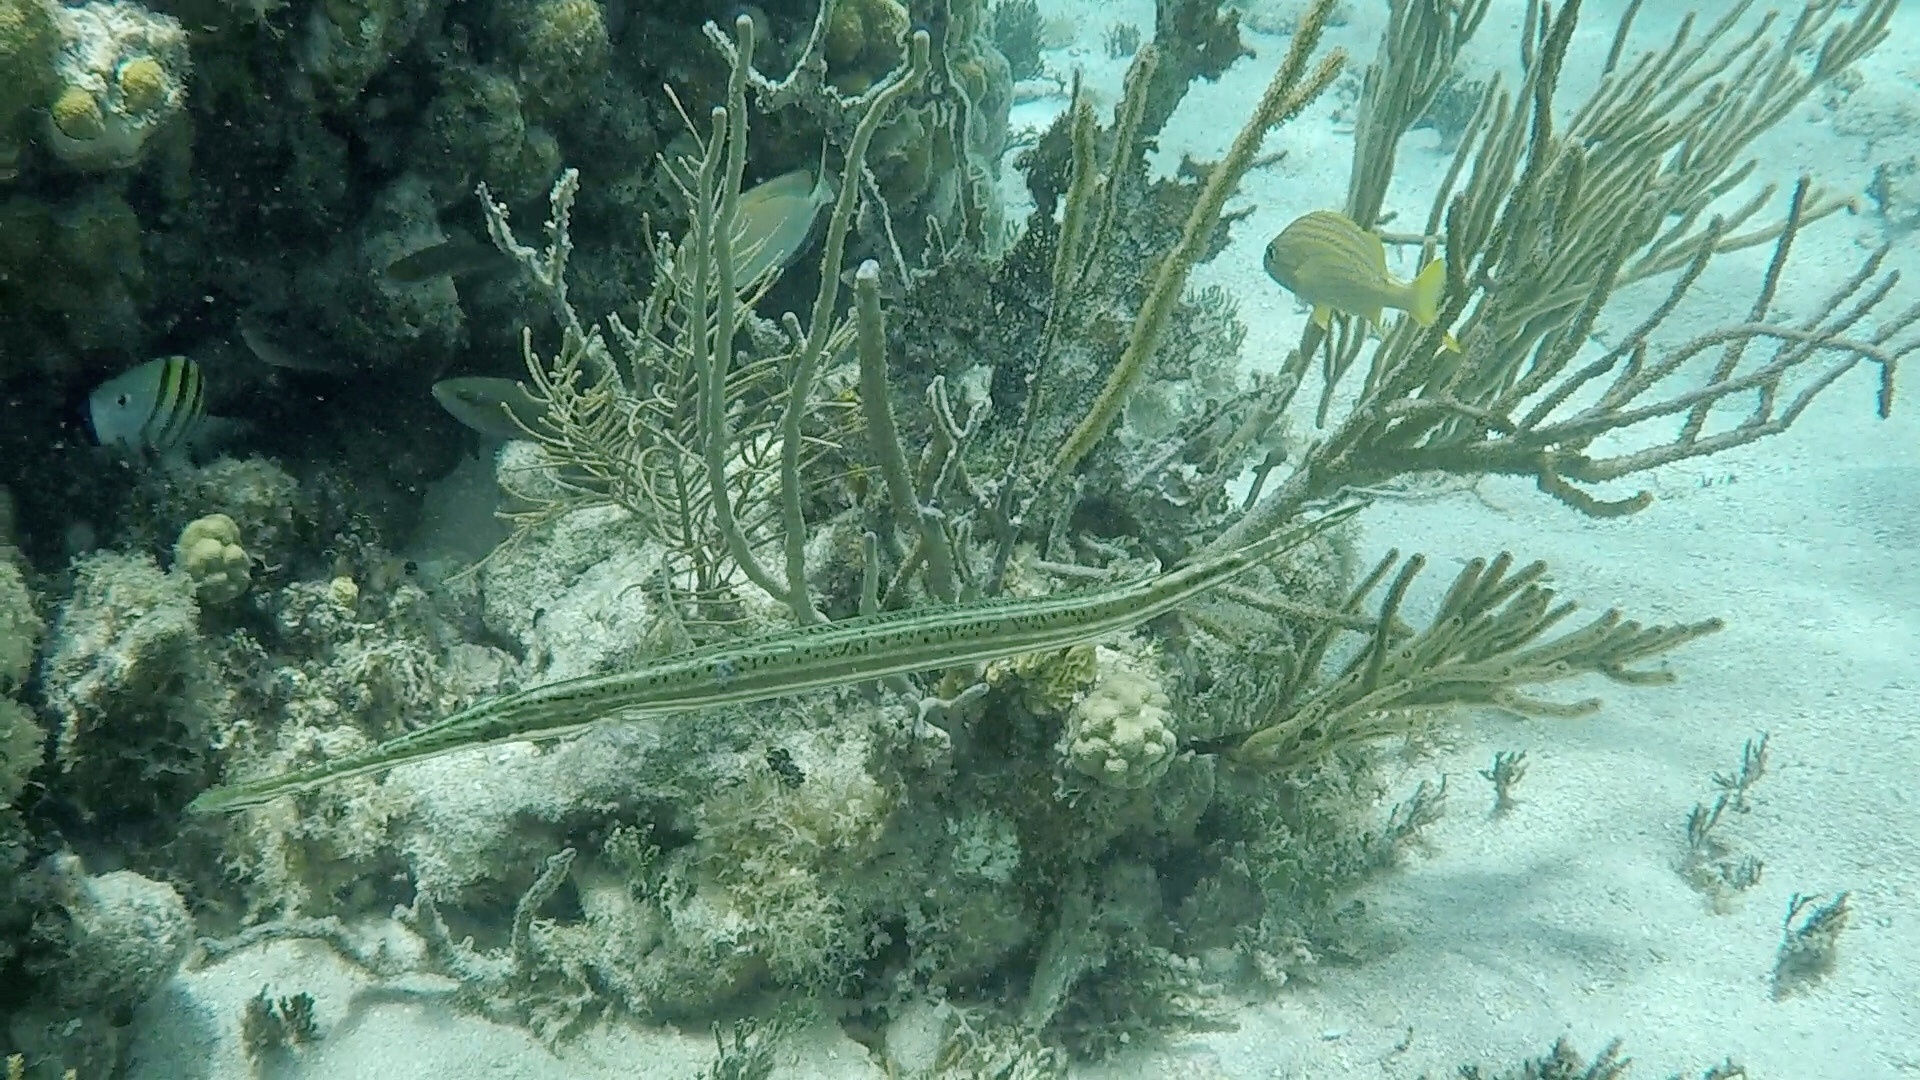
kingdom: Animalia
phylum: Chordata
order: Syngnathiformes
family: Aulostomidae
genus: Aulostomus
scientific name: Aulostomus maculatus
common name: West atlantic trumpetfish
